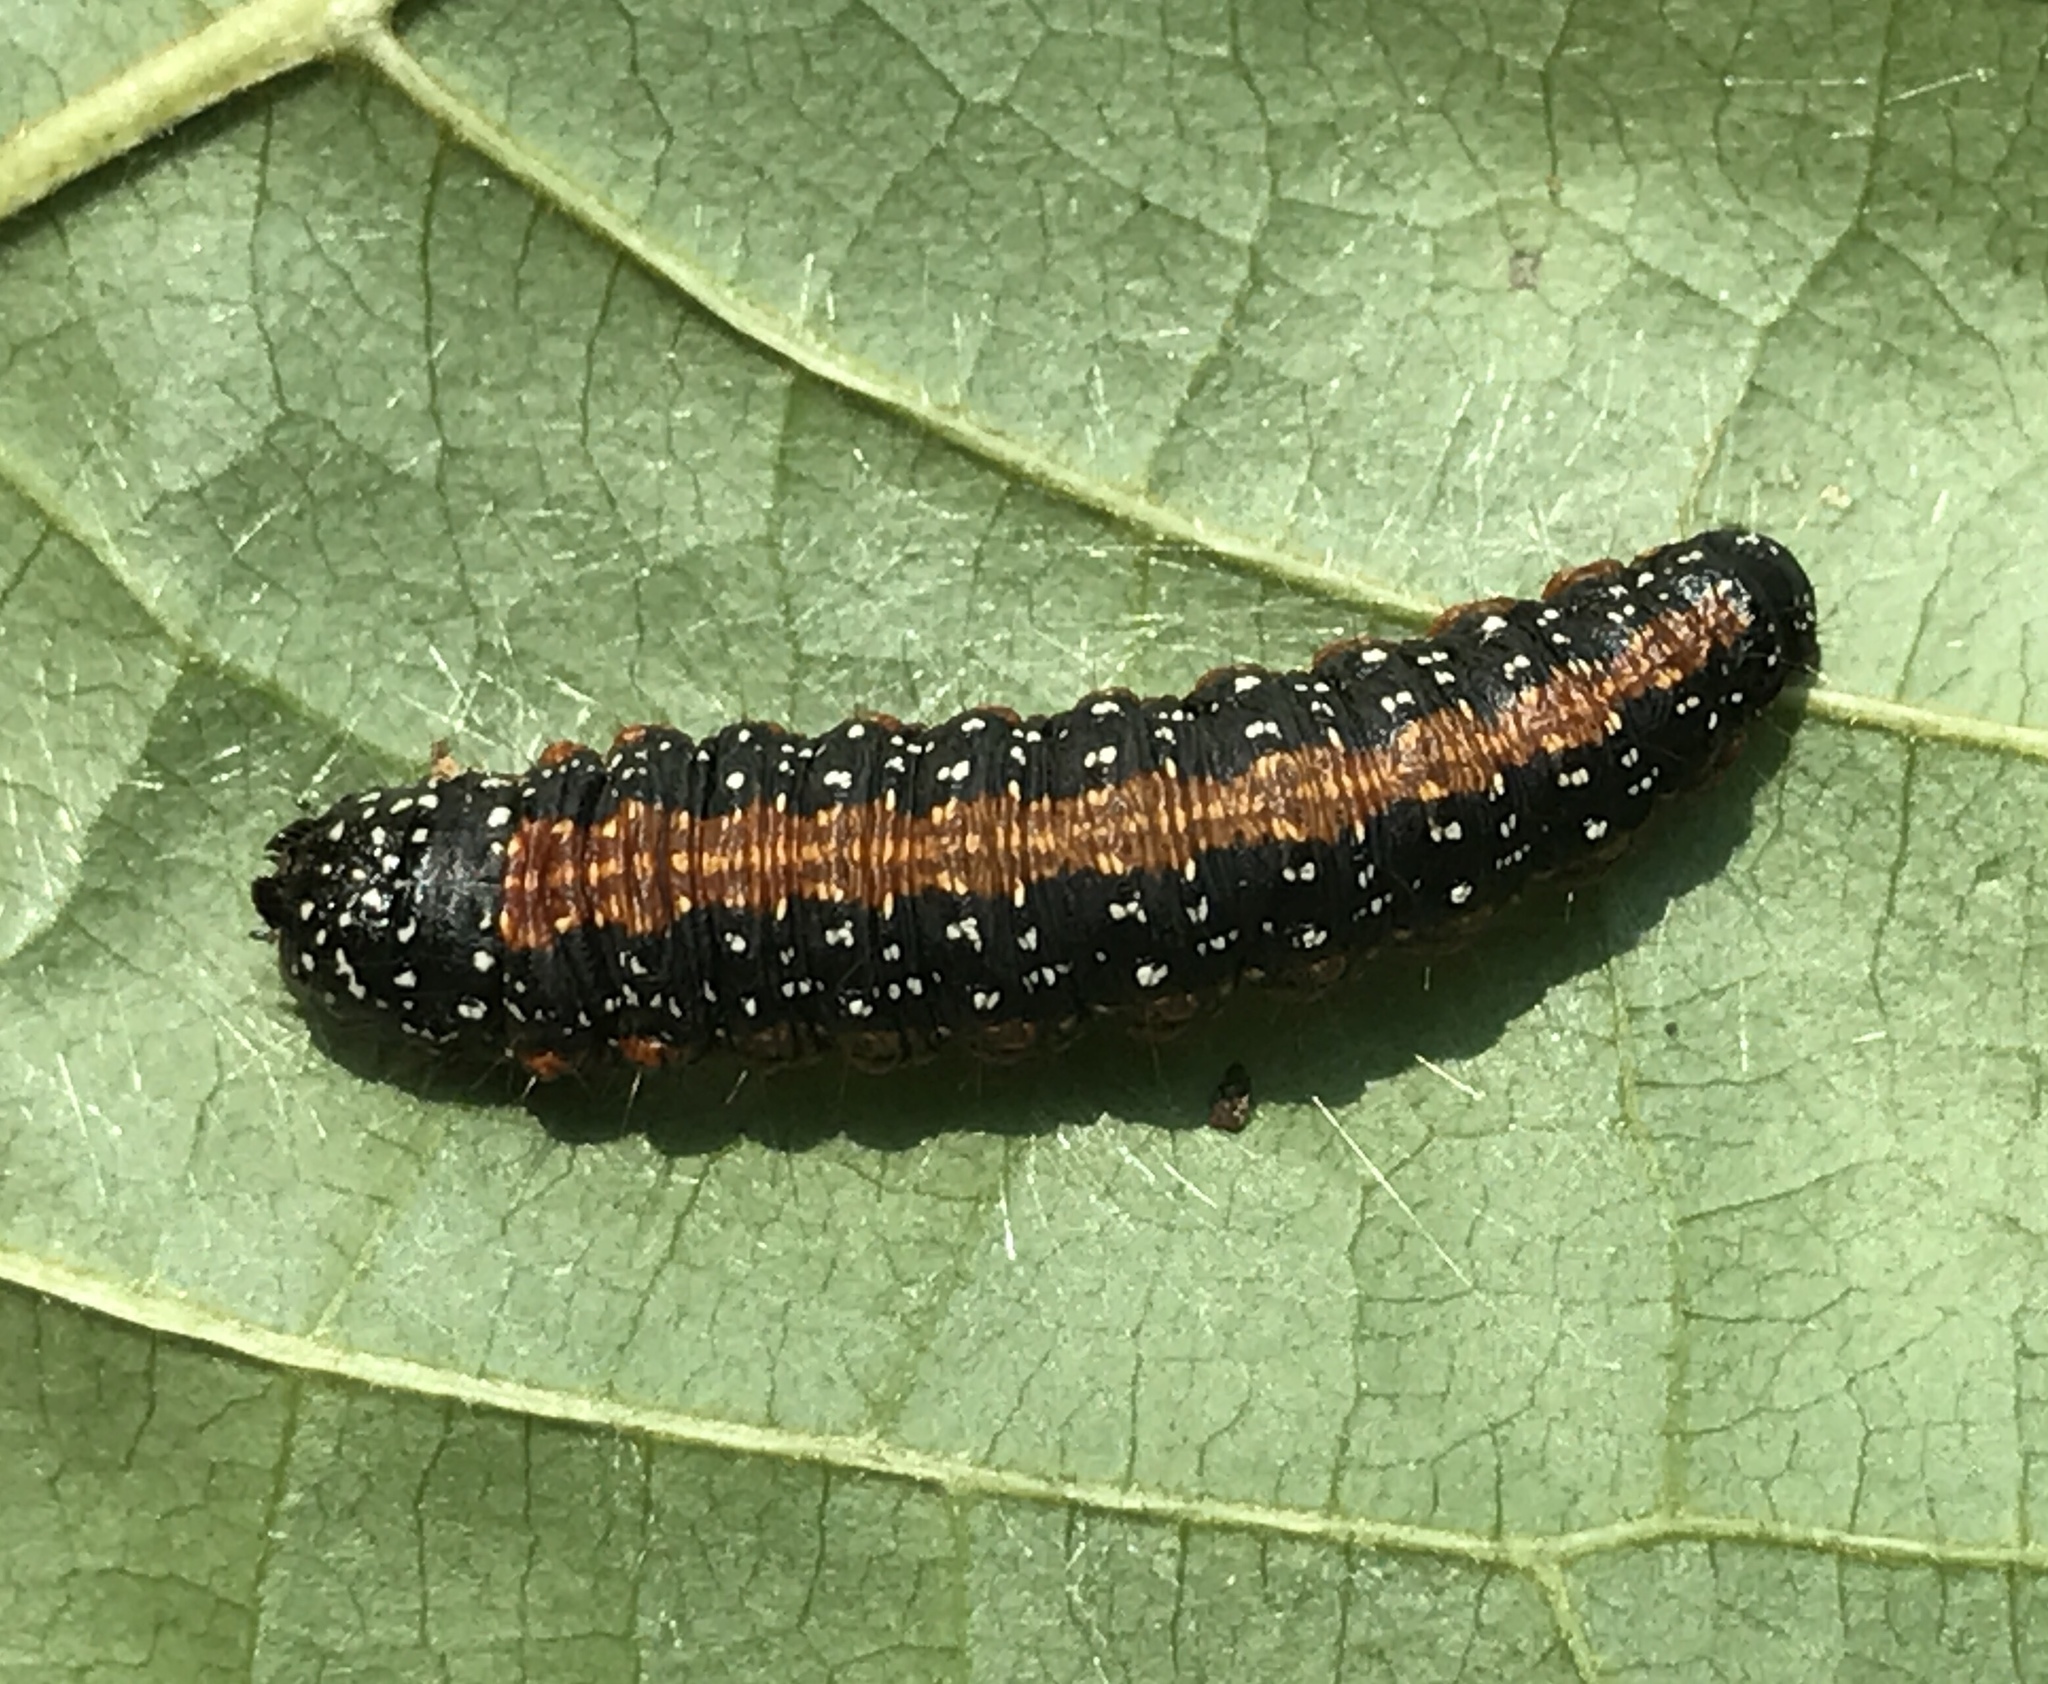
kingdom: Animalia
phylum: Arthropoda
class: Insecta
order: Lepidoptera
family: Pyralidae
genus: Omphalocera
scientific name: Omphalocera munroei
